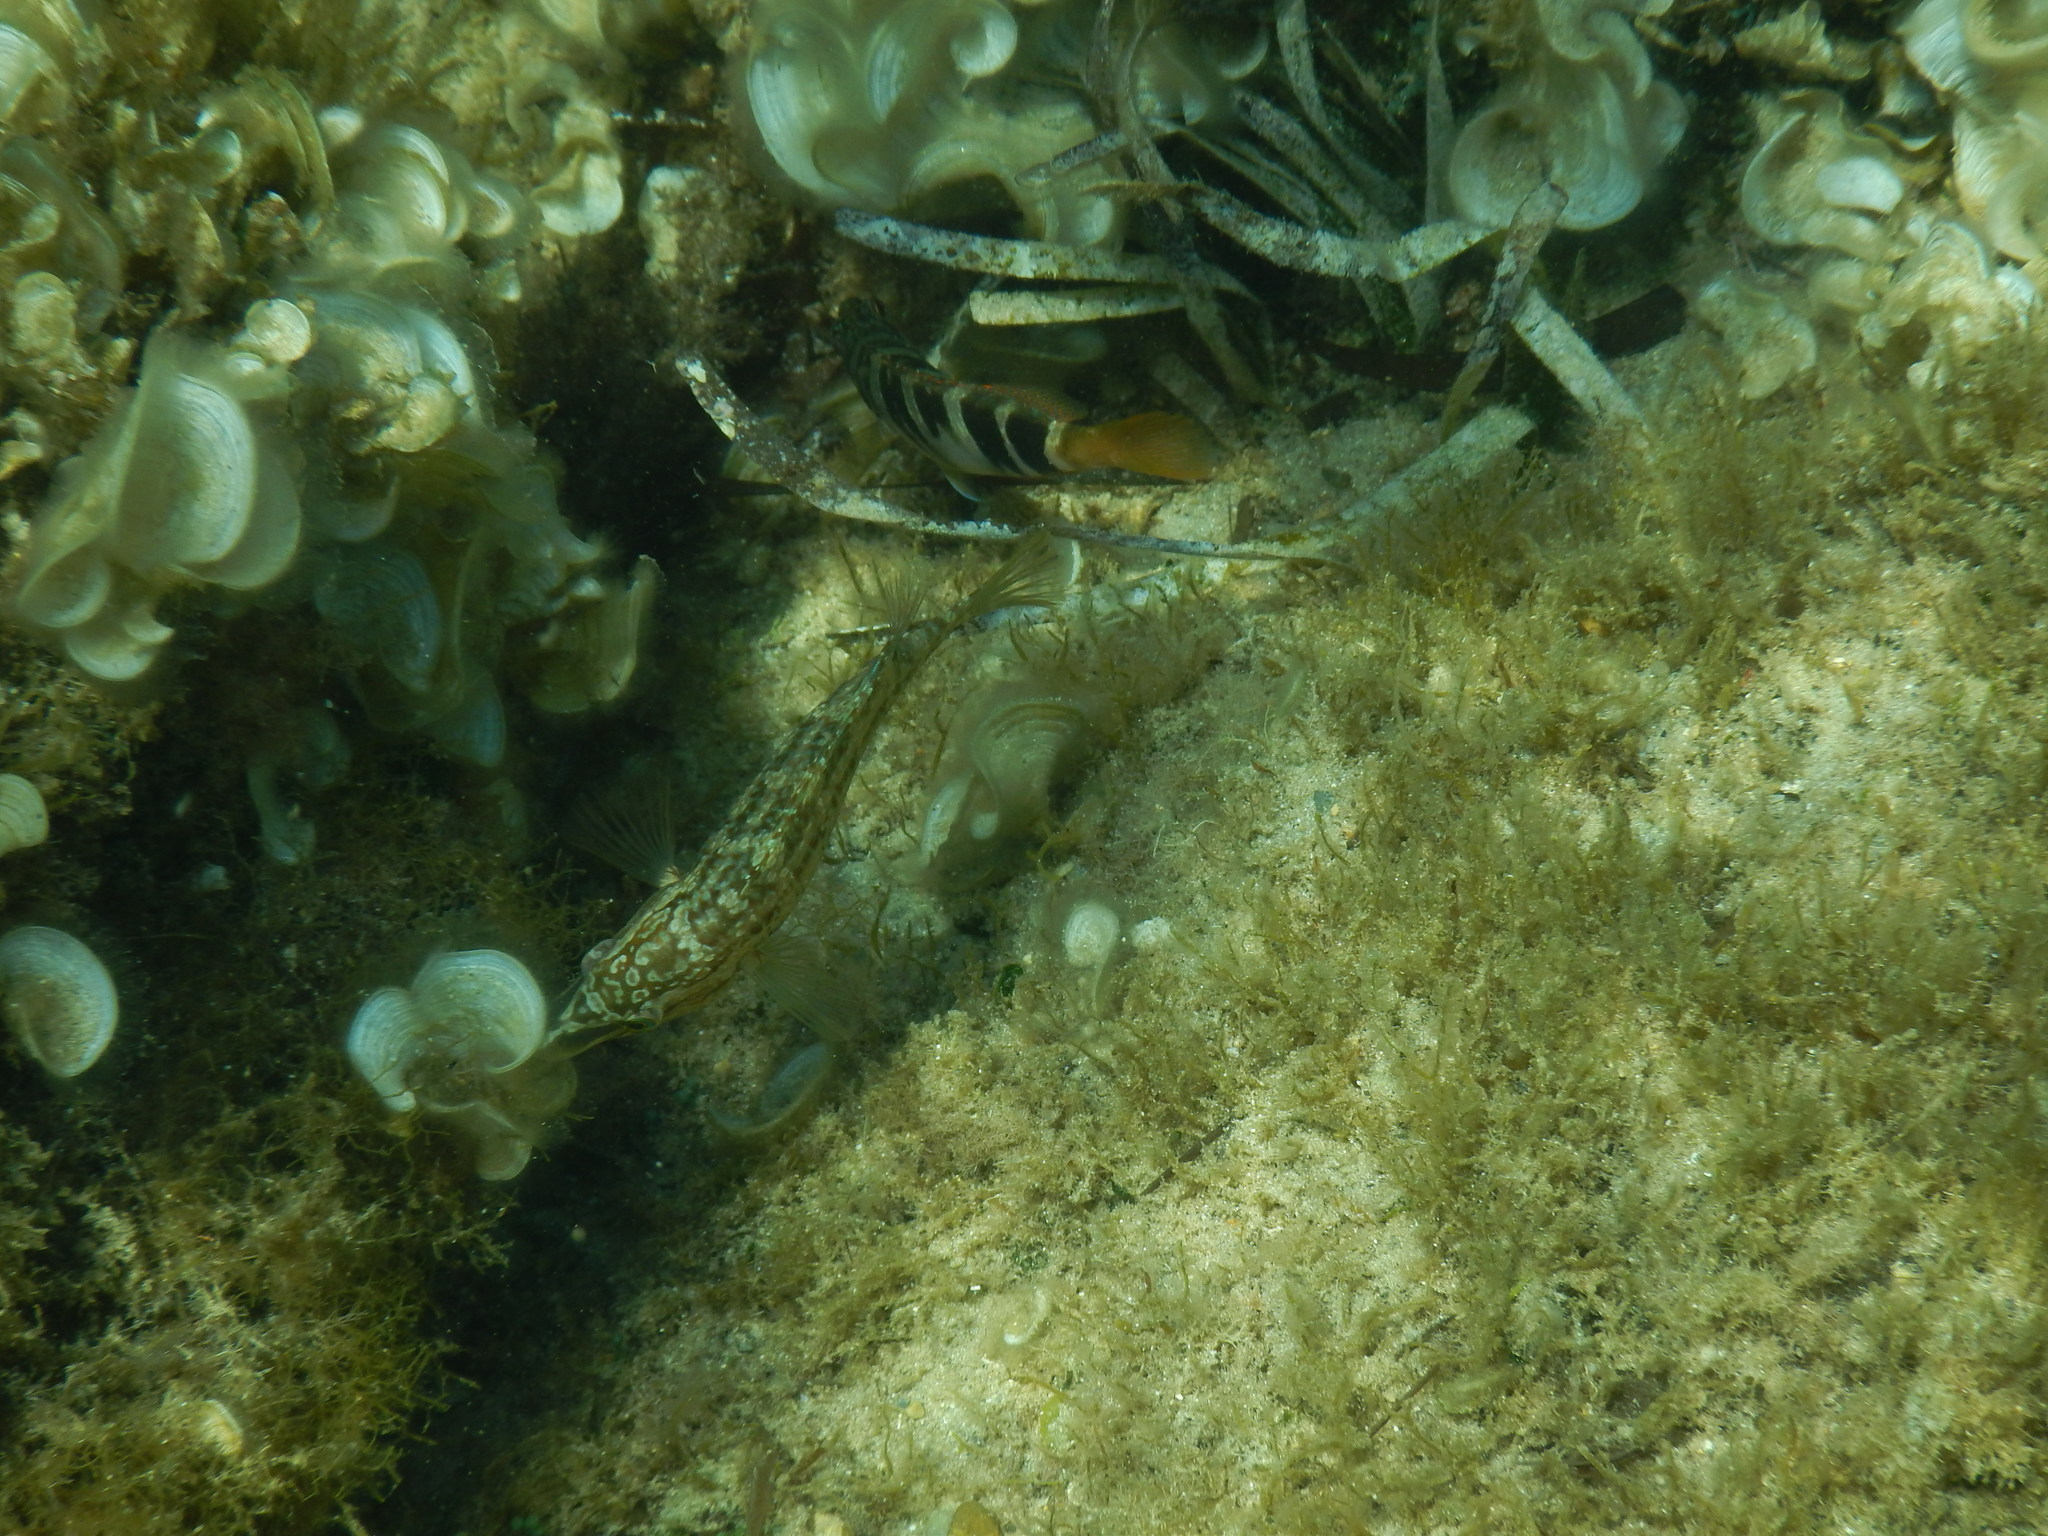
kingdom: Animalia
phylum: Chordata
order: Perciformes
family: Labridae
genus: Symphodus
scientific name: Symphodus roissali
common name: Five-spotted wrasse
